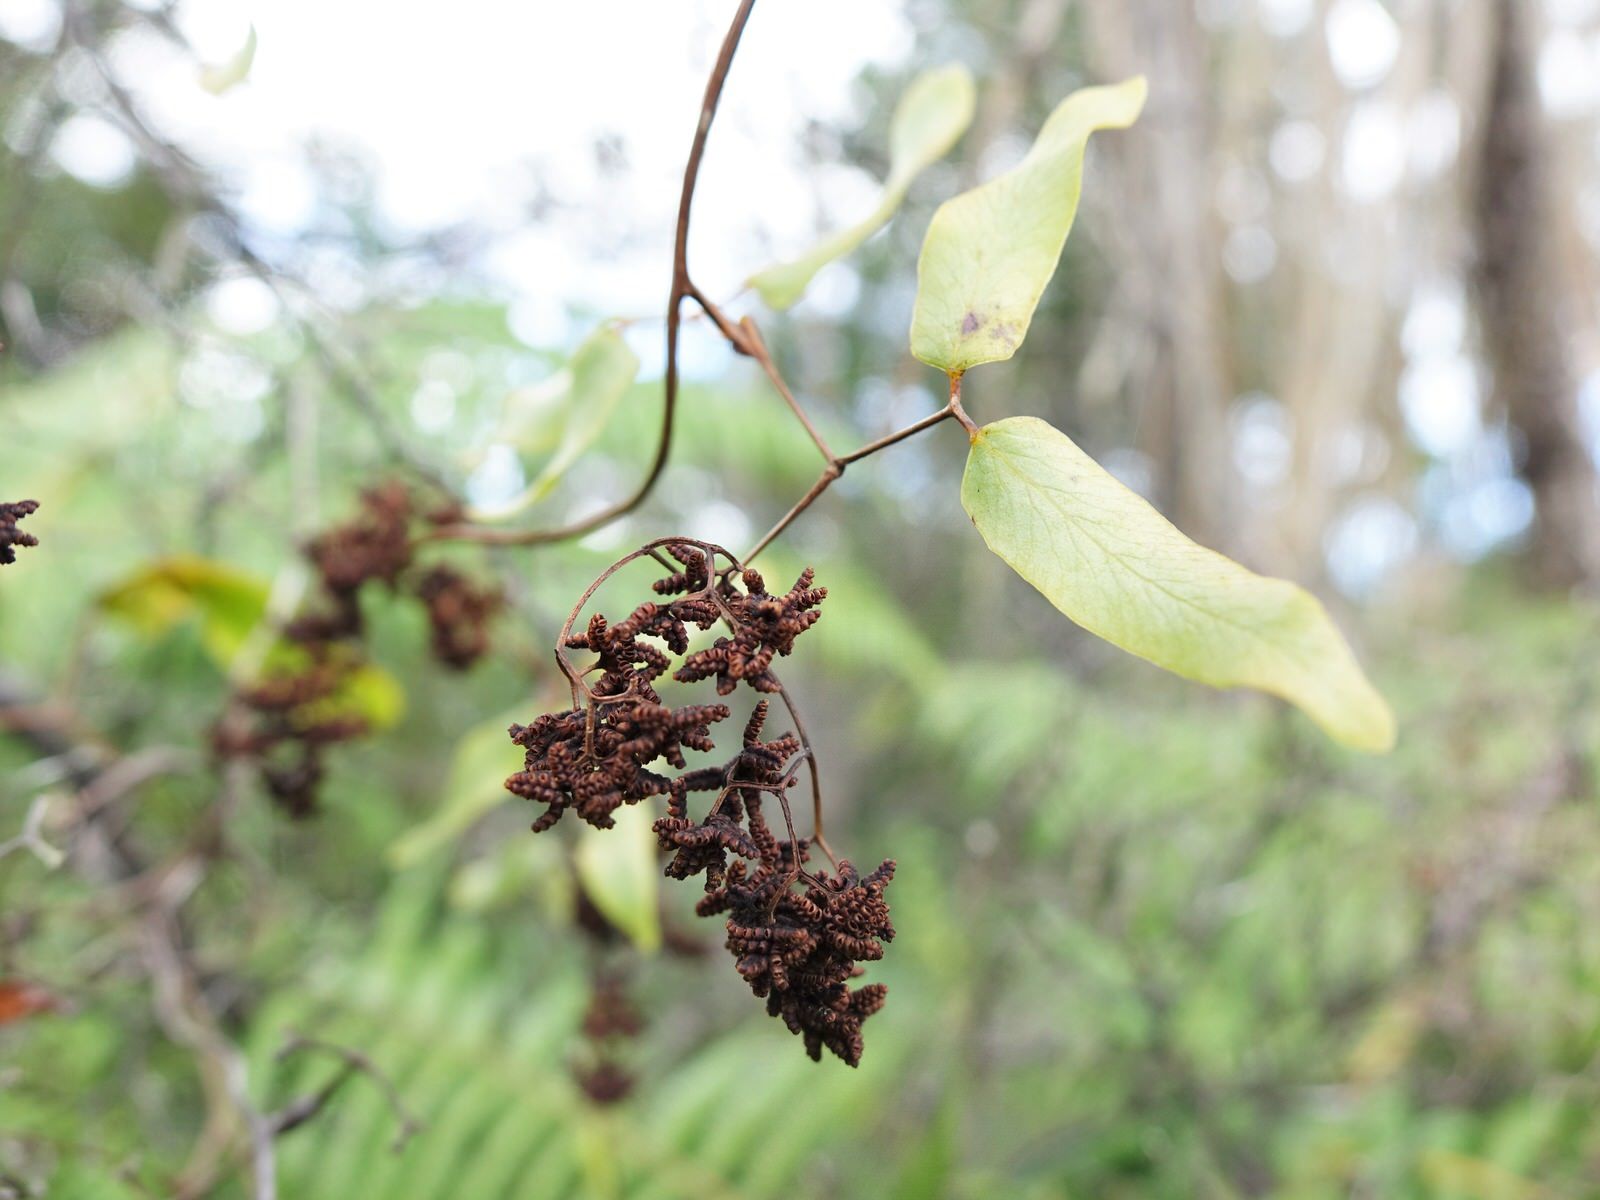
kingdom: Plantae
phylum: Tracheophyta
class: Polypodiopsida
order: Schizaeales
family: Lygodiaceae
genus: Lygodium
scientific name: Lygodium articulatum
